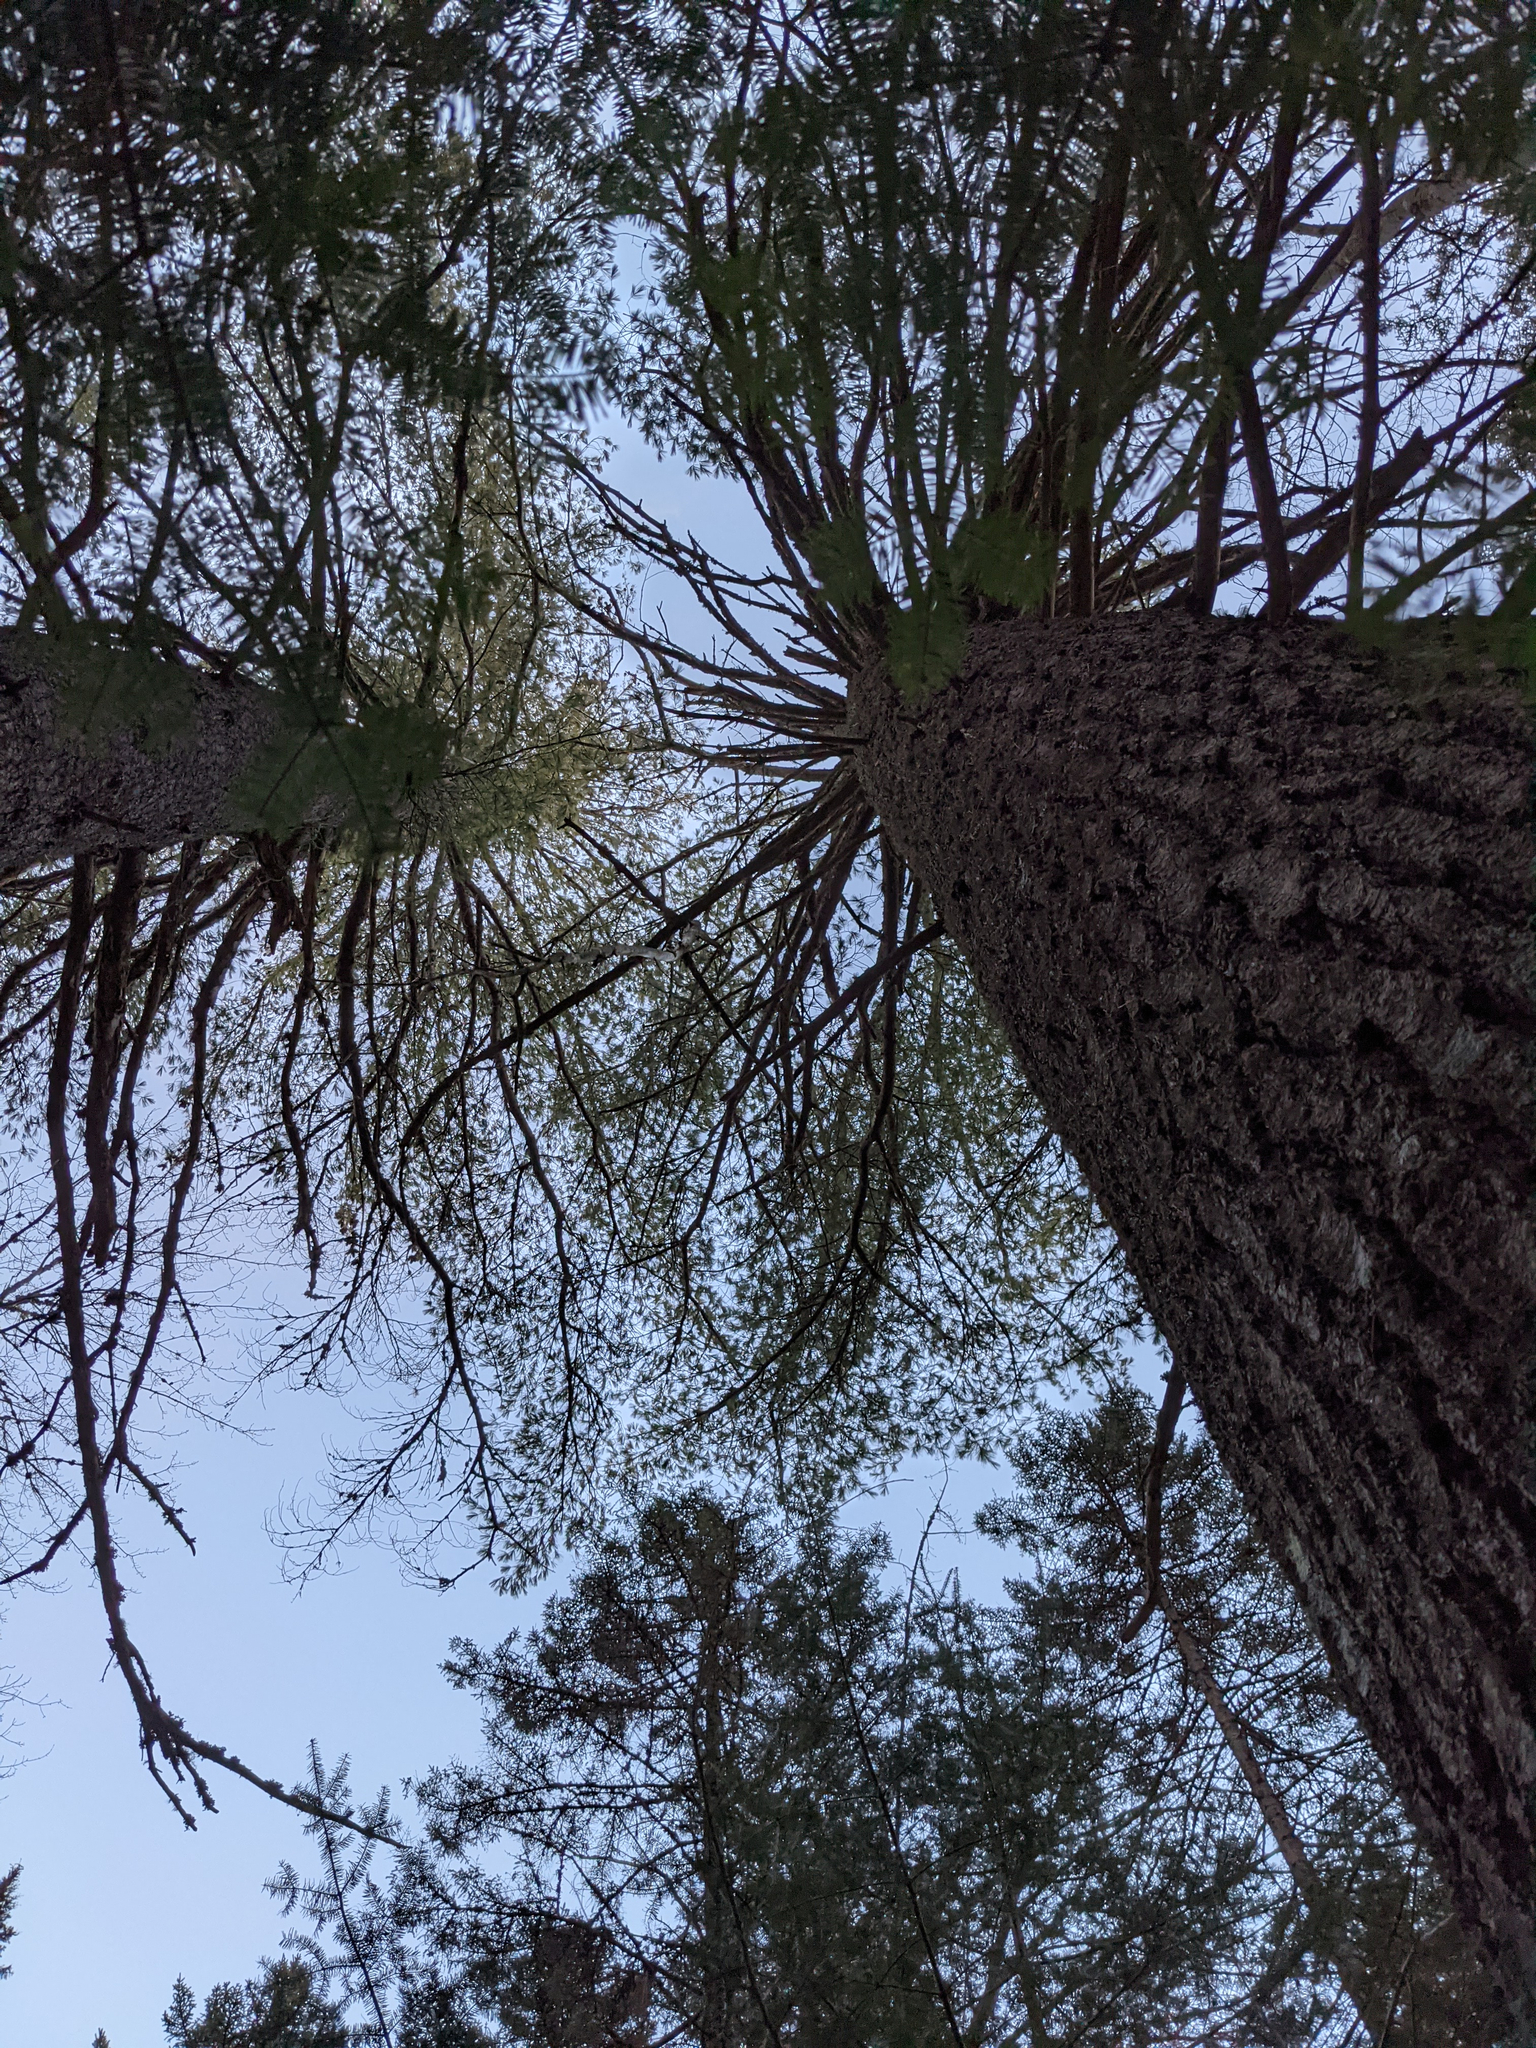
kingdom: Plantae
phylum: Tracheophyta
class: Pinopsida
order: Pinales
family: Pinaceae
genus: Pinus
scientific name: Pinus strobus
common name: Weymouth pine
